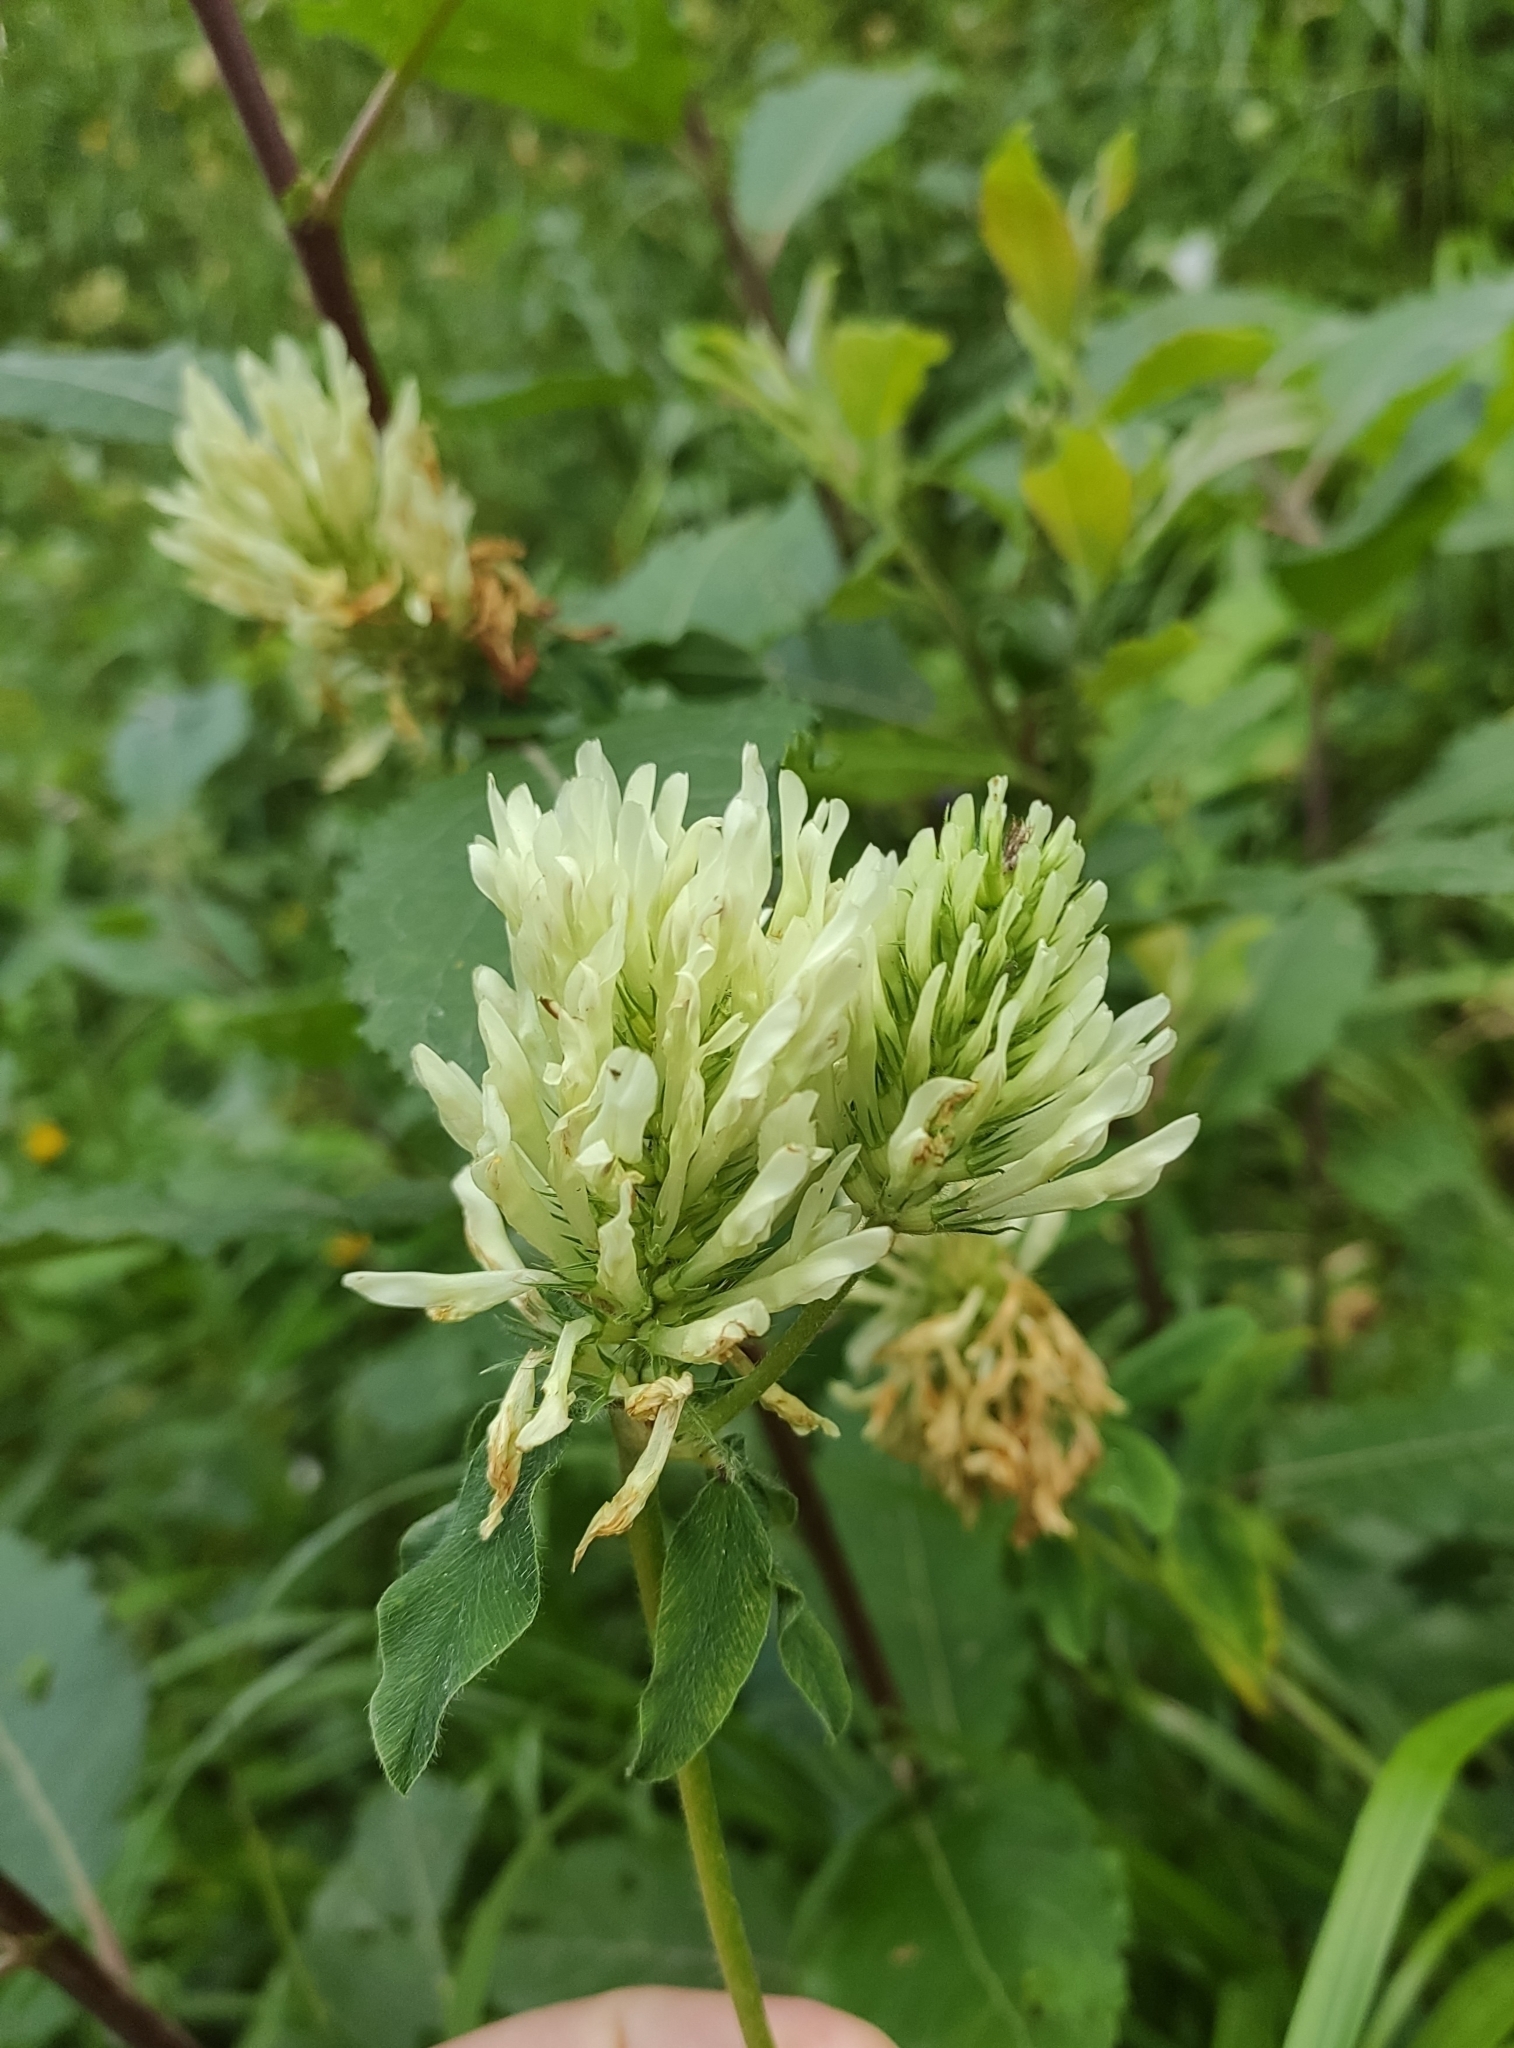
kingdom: Plantae
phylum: Tracheophyta
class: Magnoliopsida
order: Fabales
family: Fabaceae
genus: Trifolium
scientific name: Trifolium repens
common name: White clover
